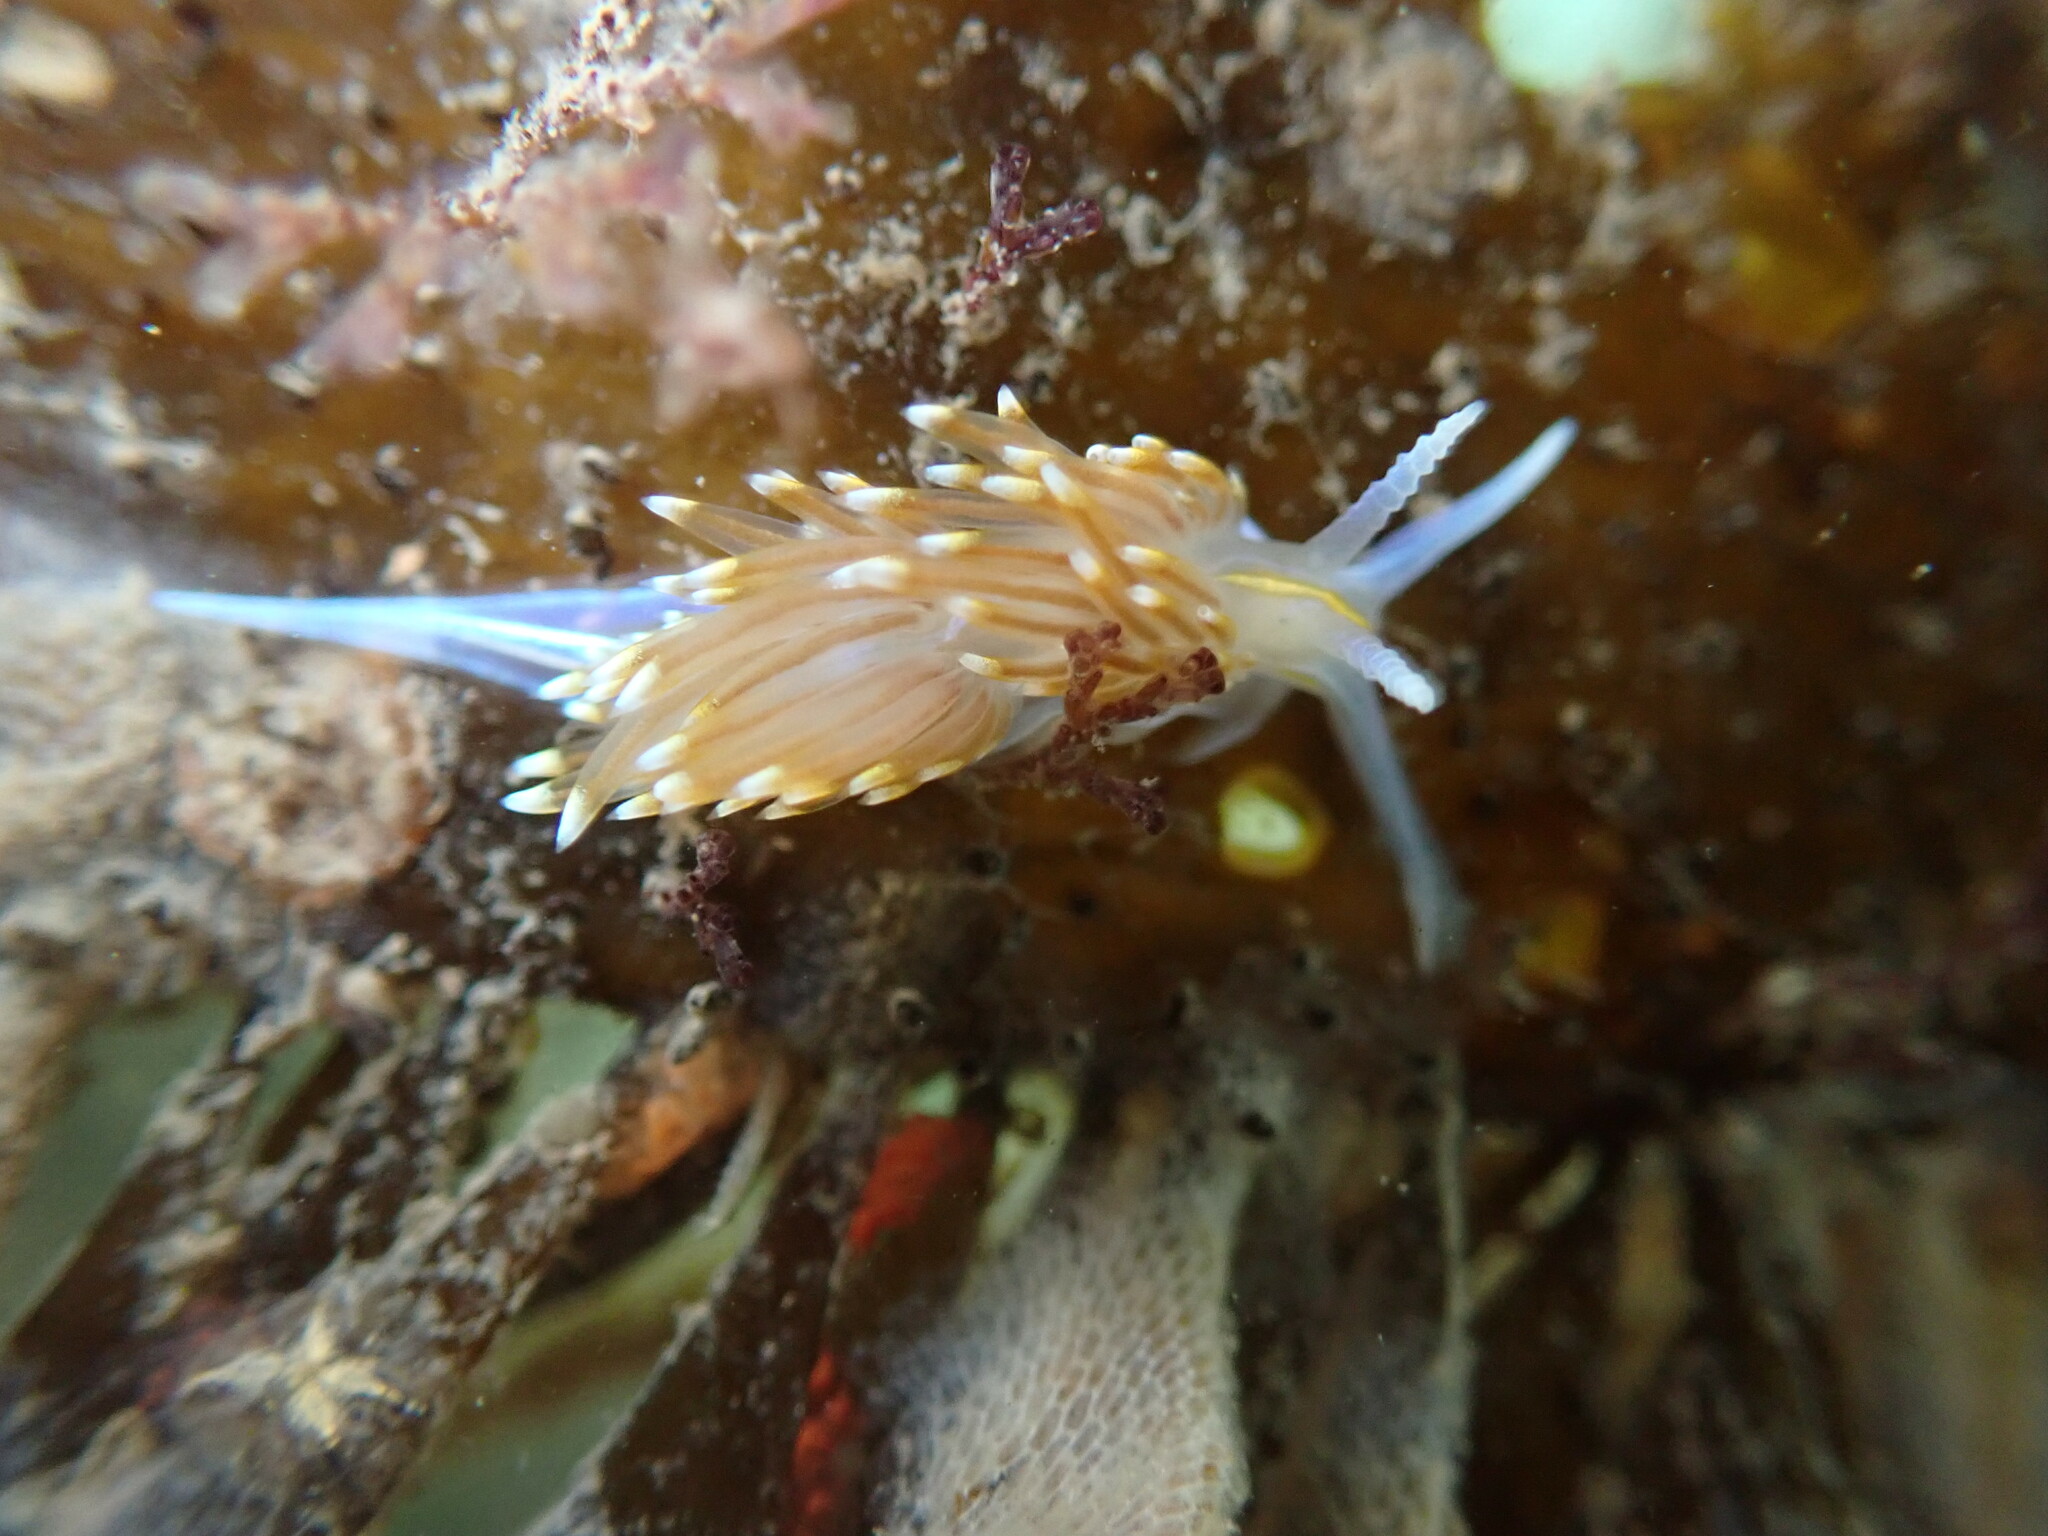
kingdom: Animalia
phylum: Mollusca
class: Gastropoda
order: Nudibranchia
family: Myrrhinidae
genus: Hermissenda
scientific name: Hermissenda opalescens
